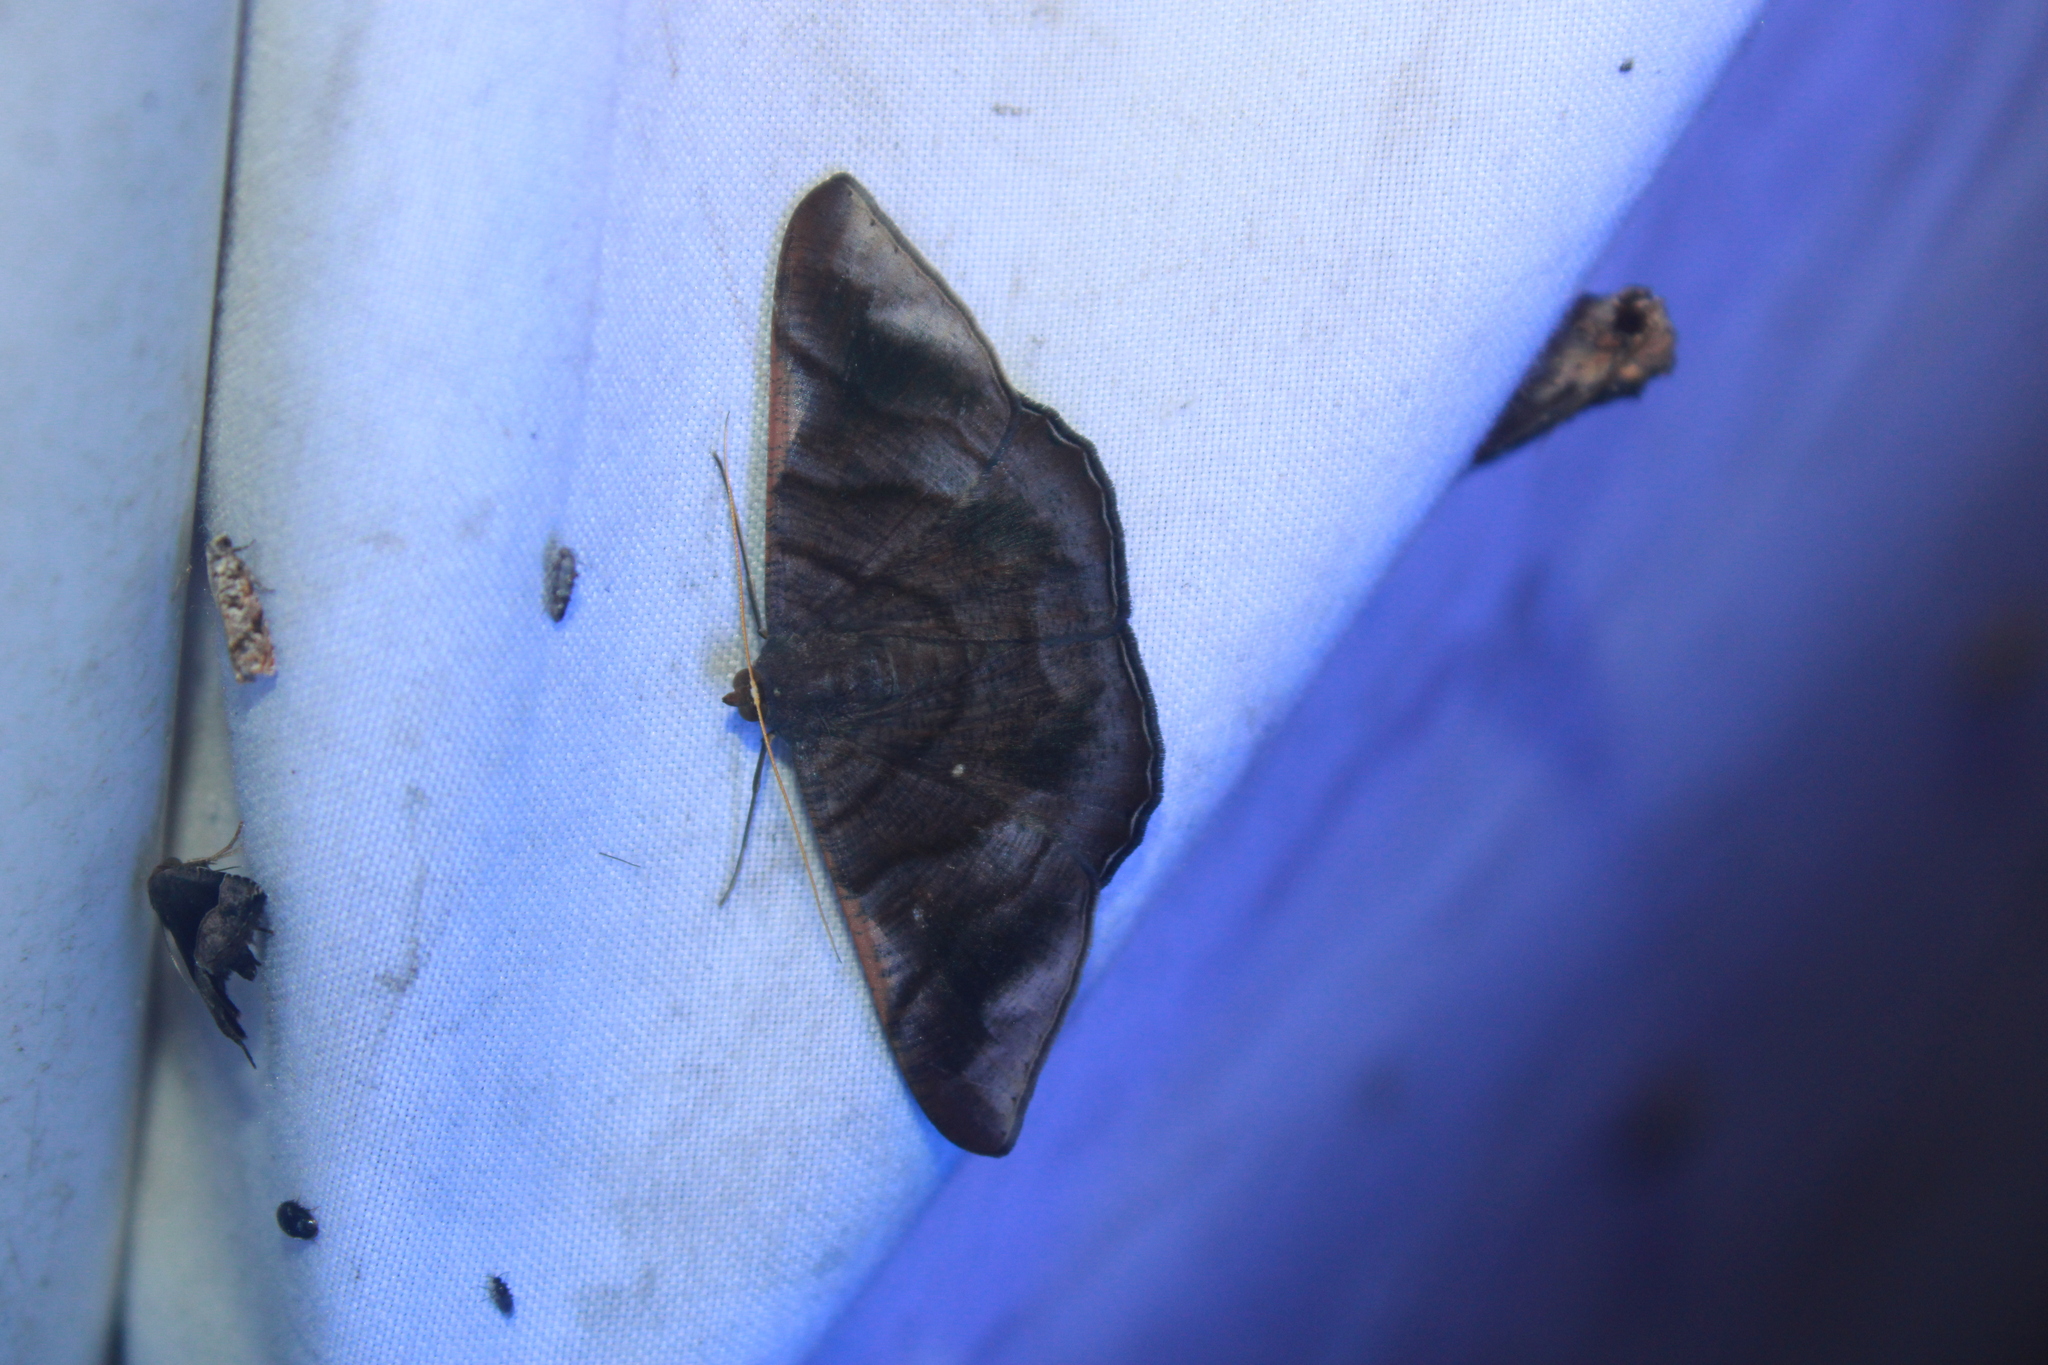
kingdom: Animalia
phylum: Arthropoda
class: Insecta
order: Lepidoptera
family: Geometridae
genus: Sphacelodes
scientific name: Sphacelodes vulneraria
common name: Looper moth
